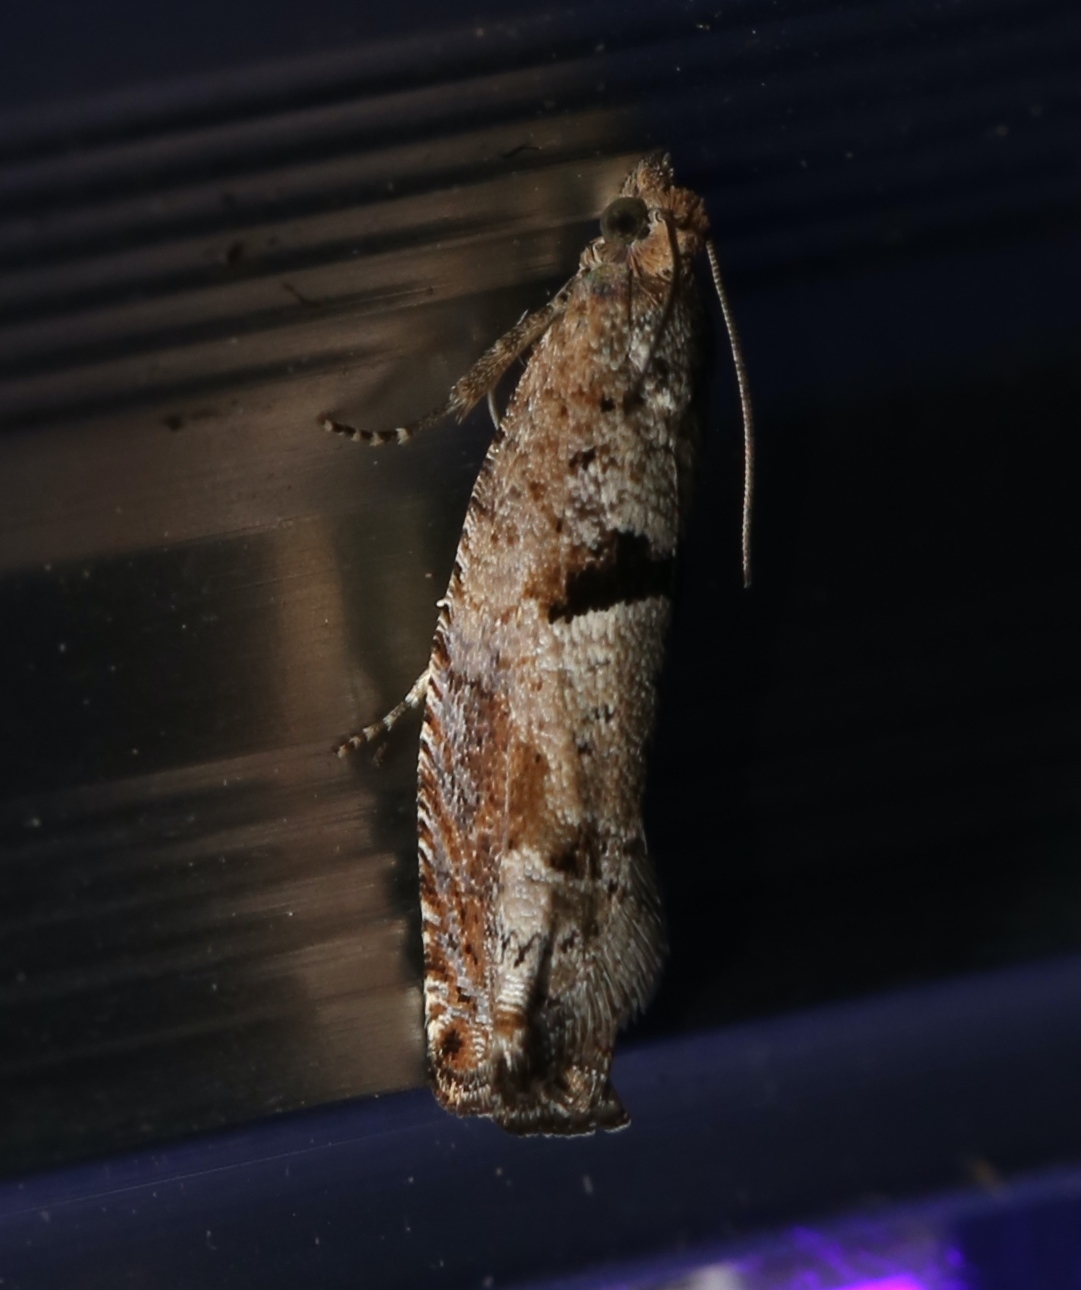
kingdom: Animalia
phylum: Arthropoda
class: Insecta
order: Lepidoptera
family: Tortricidae
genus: Pseudexentera
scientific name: Pseudexentera sepia
